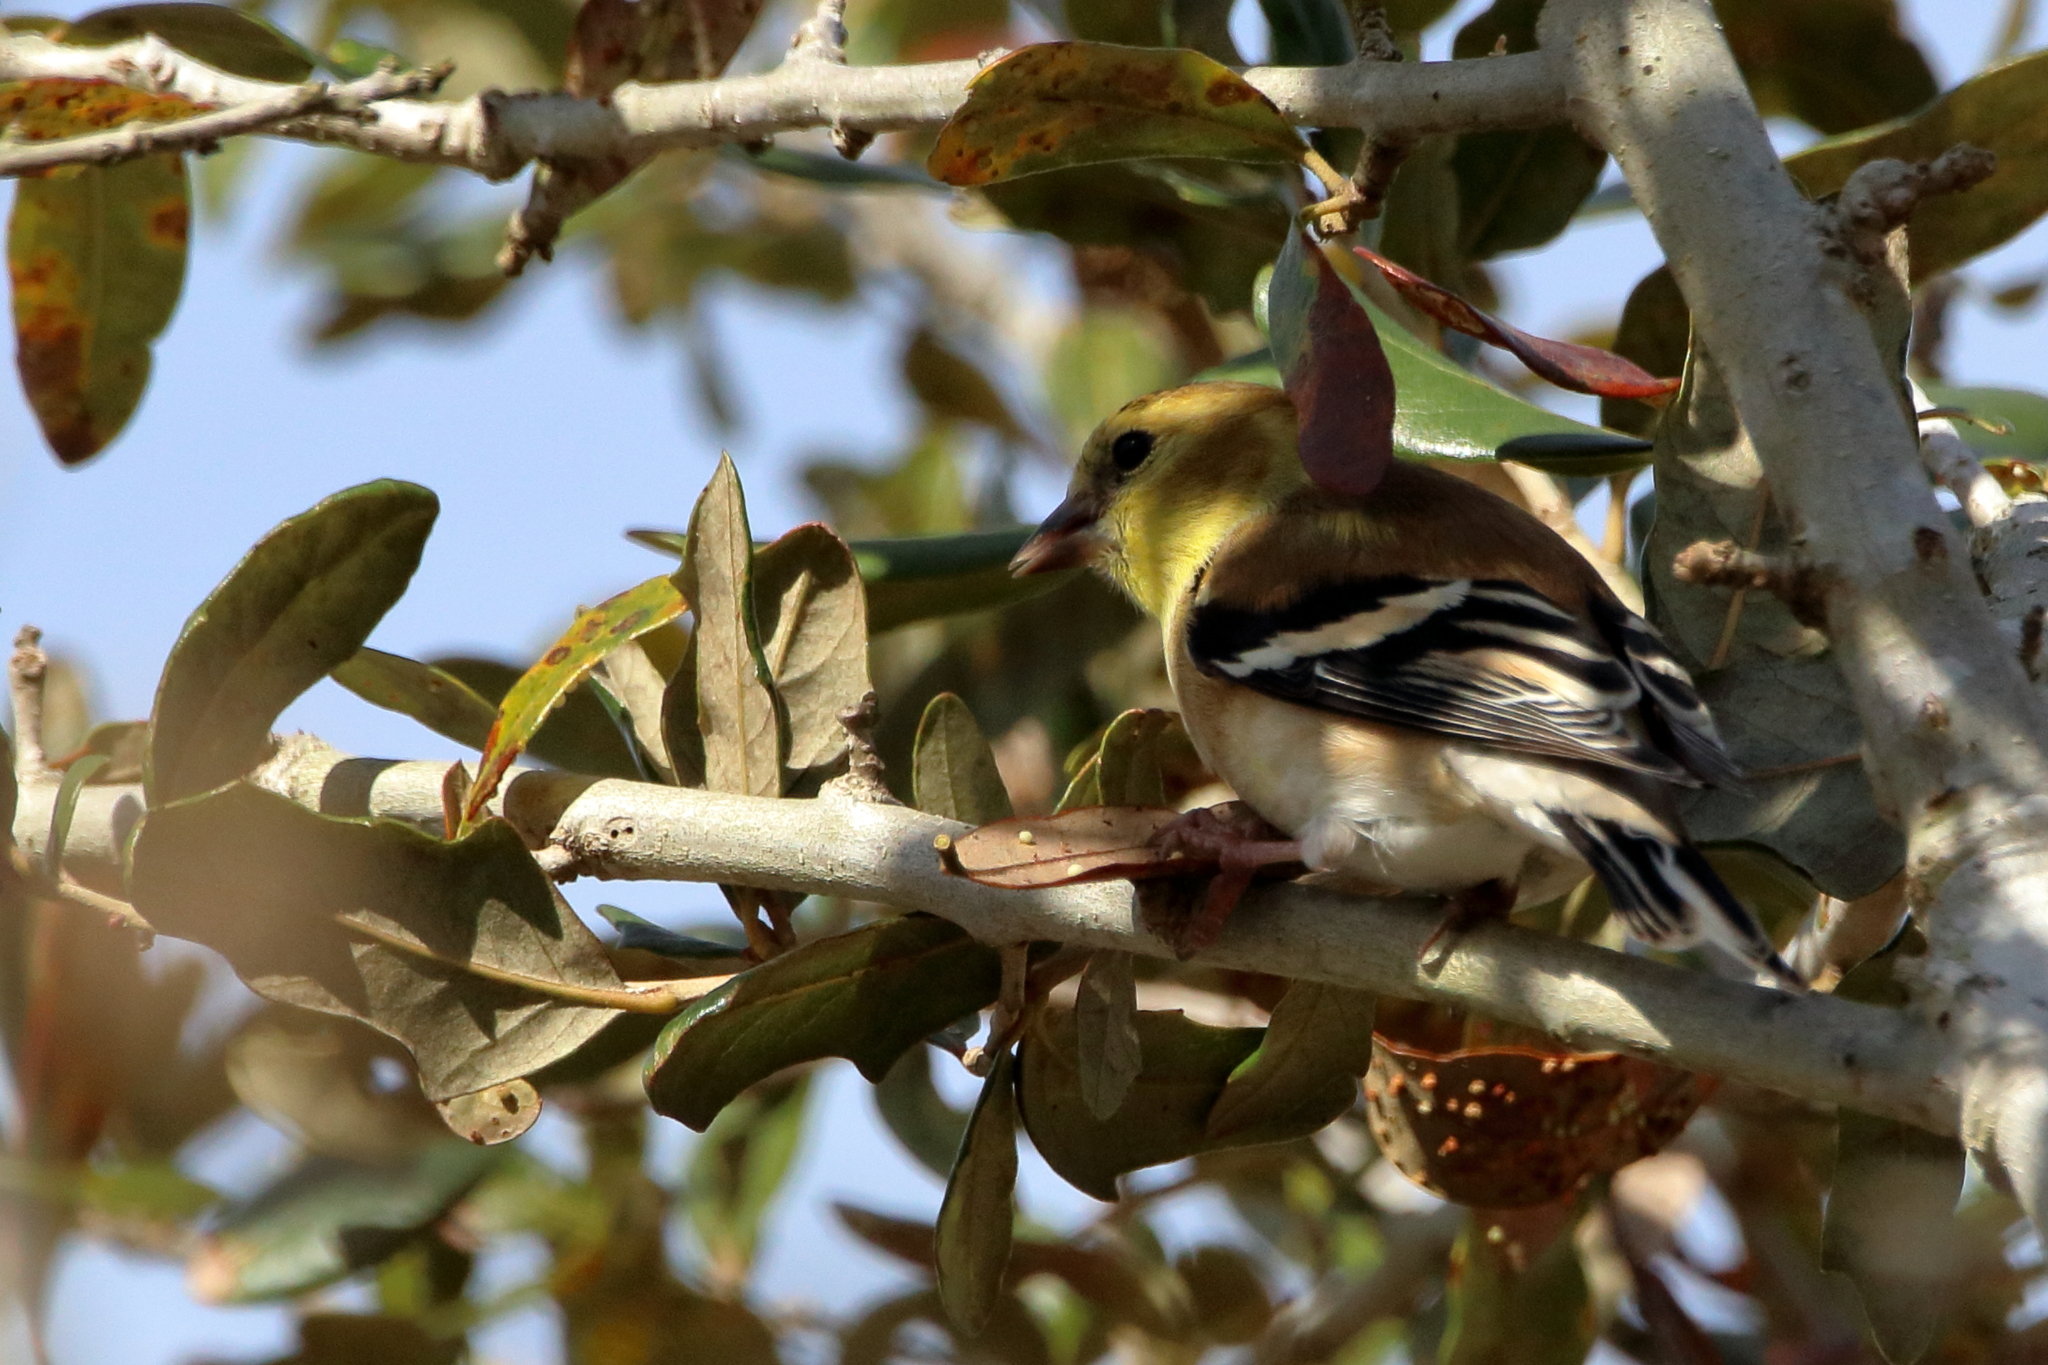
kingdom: Animalia
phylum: Chordata
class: Aves
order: Passeriformes
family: Fringillidae
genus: Spinus
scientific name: Spinus tristis
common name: American goldfinch
